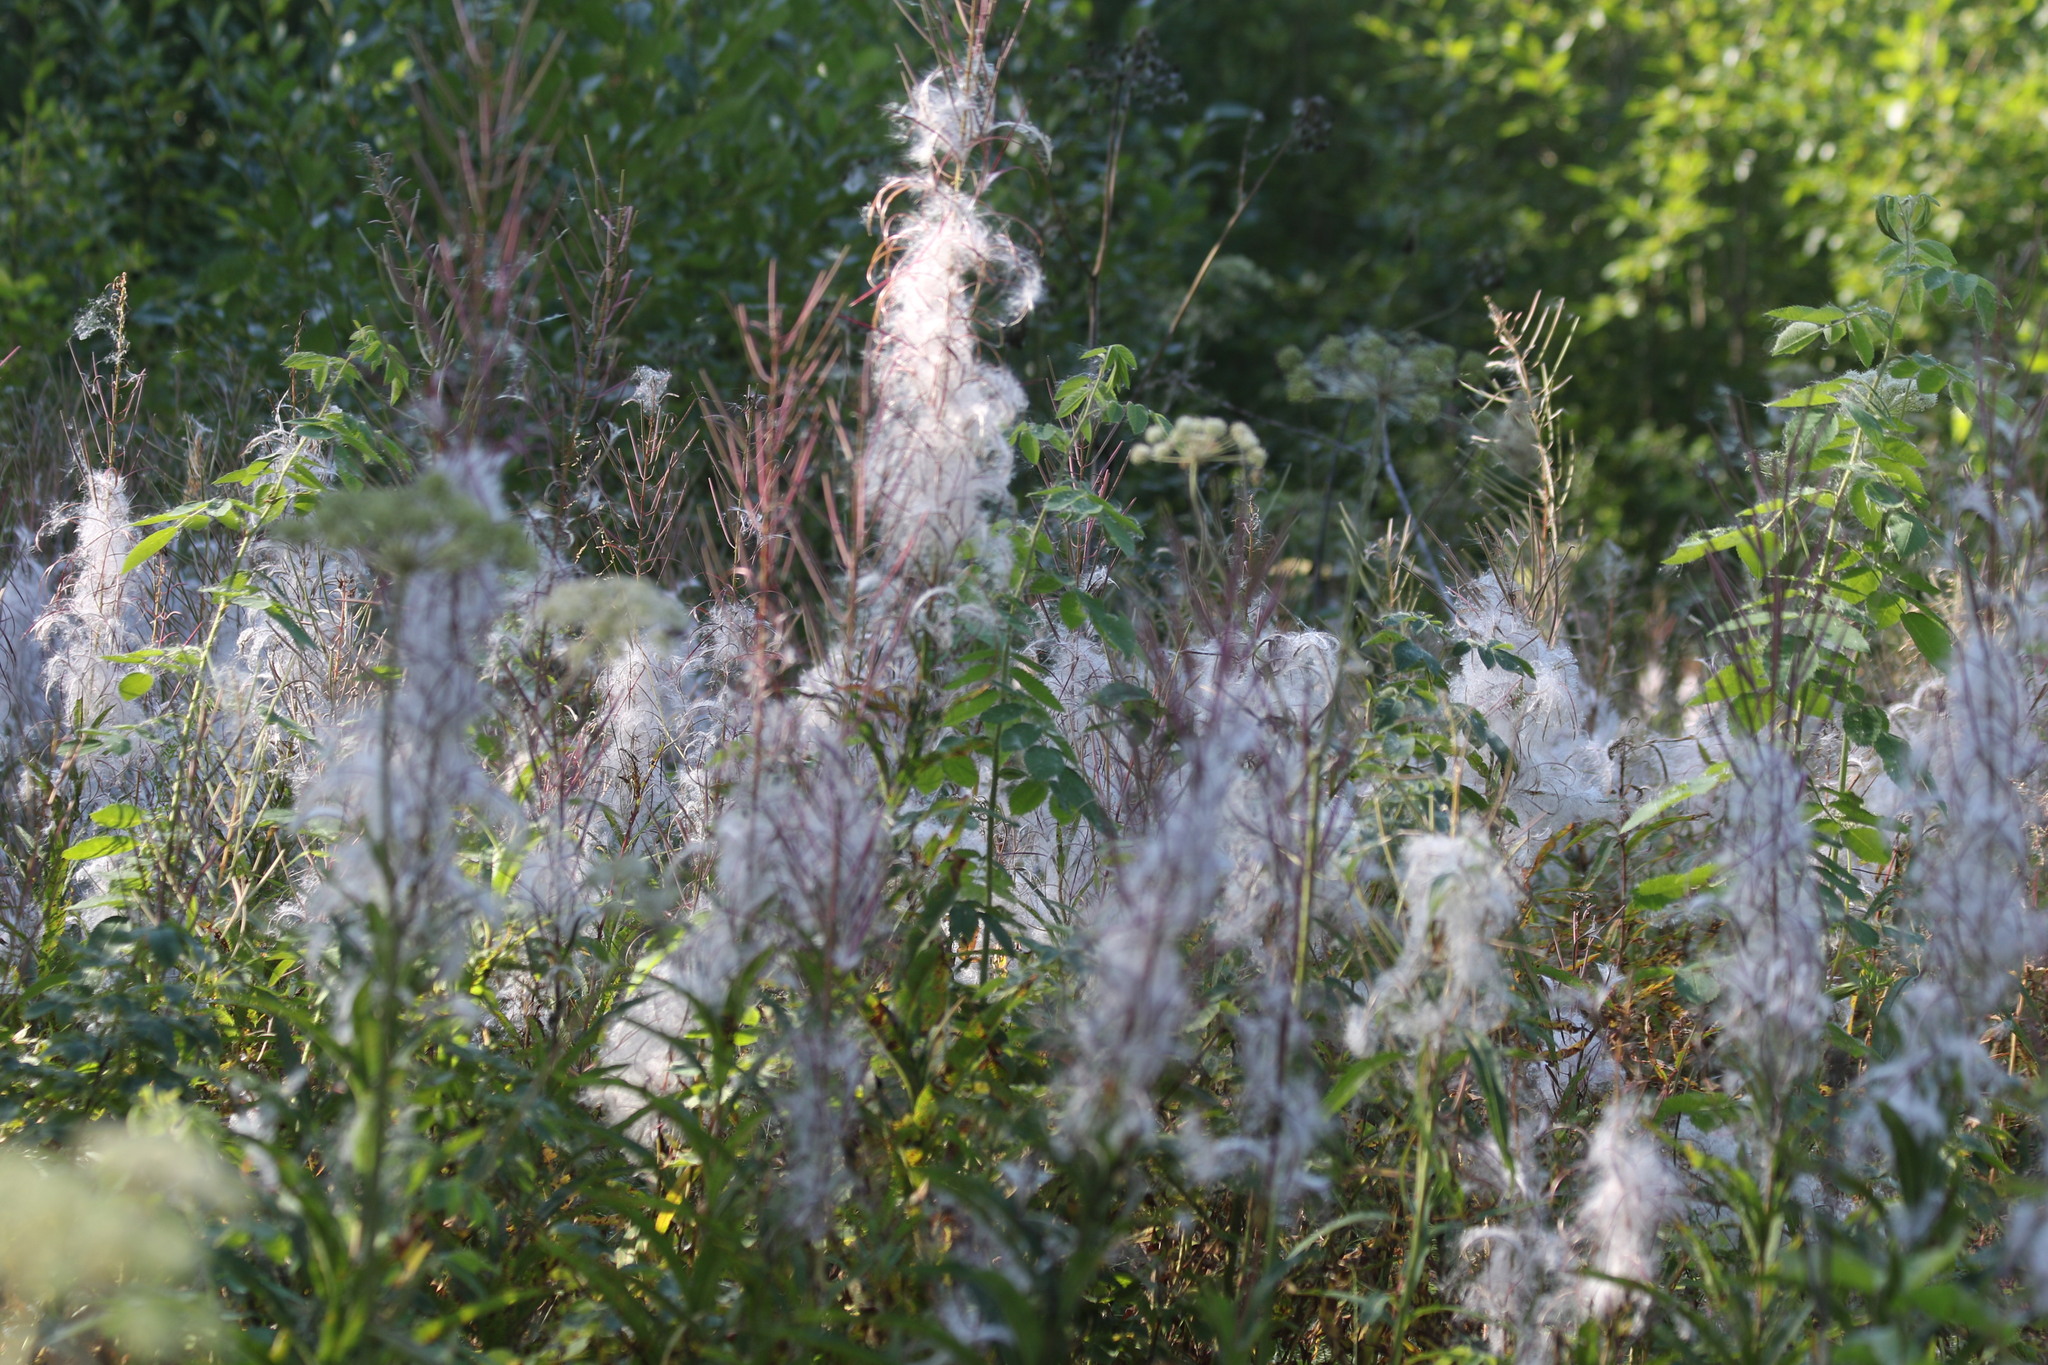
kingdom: Plantae
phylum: Tracheophyta
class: Magnoliopsida
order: Myrtales
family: Onagraceae
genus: Chamaenerion
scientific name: Chamaenerion angustifolium
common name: Fireweed
